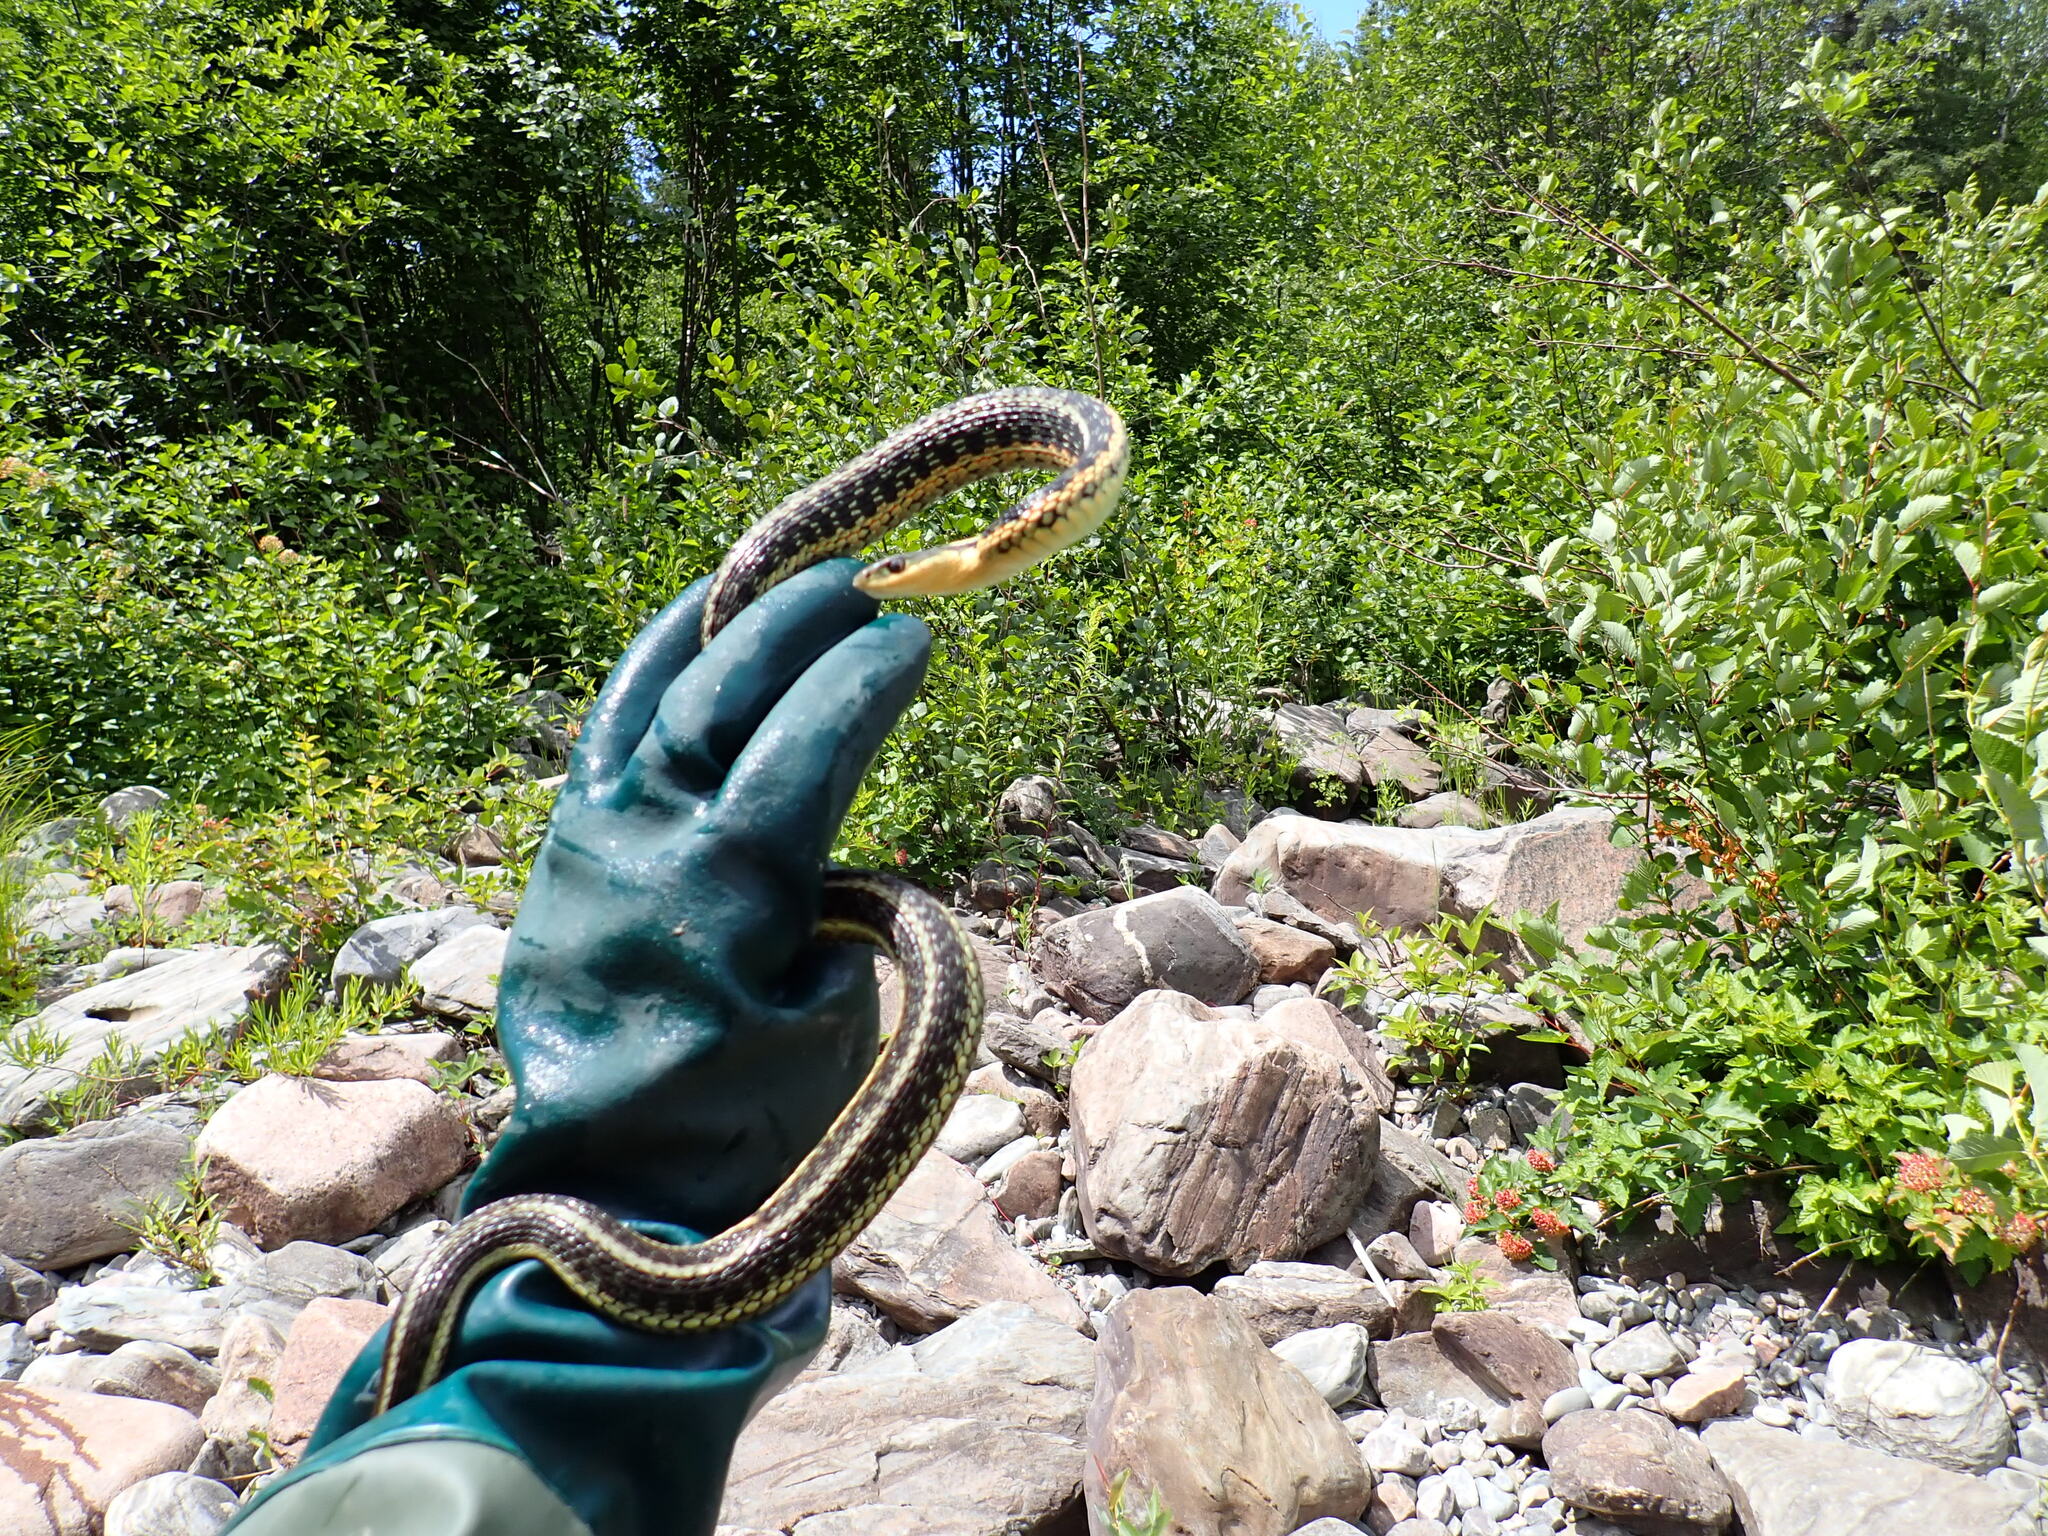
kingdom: Animalia
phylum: Chordata
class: Squamata
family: Colubridae
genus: Thamnophis
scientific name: Thamnophis sirtalis
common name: Common garter snake
